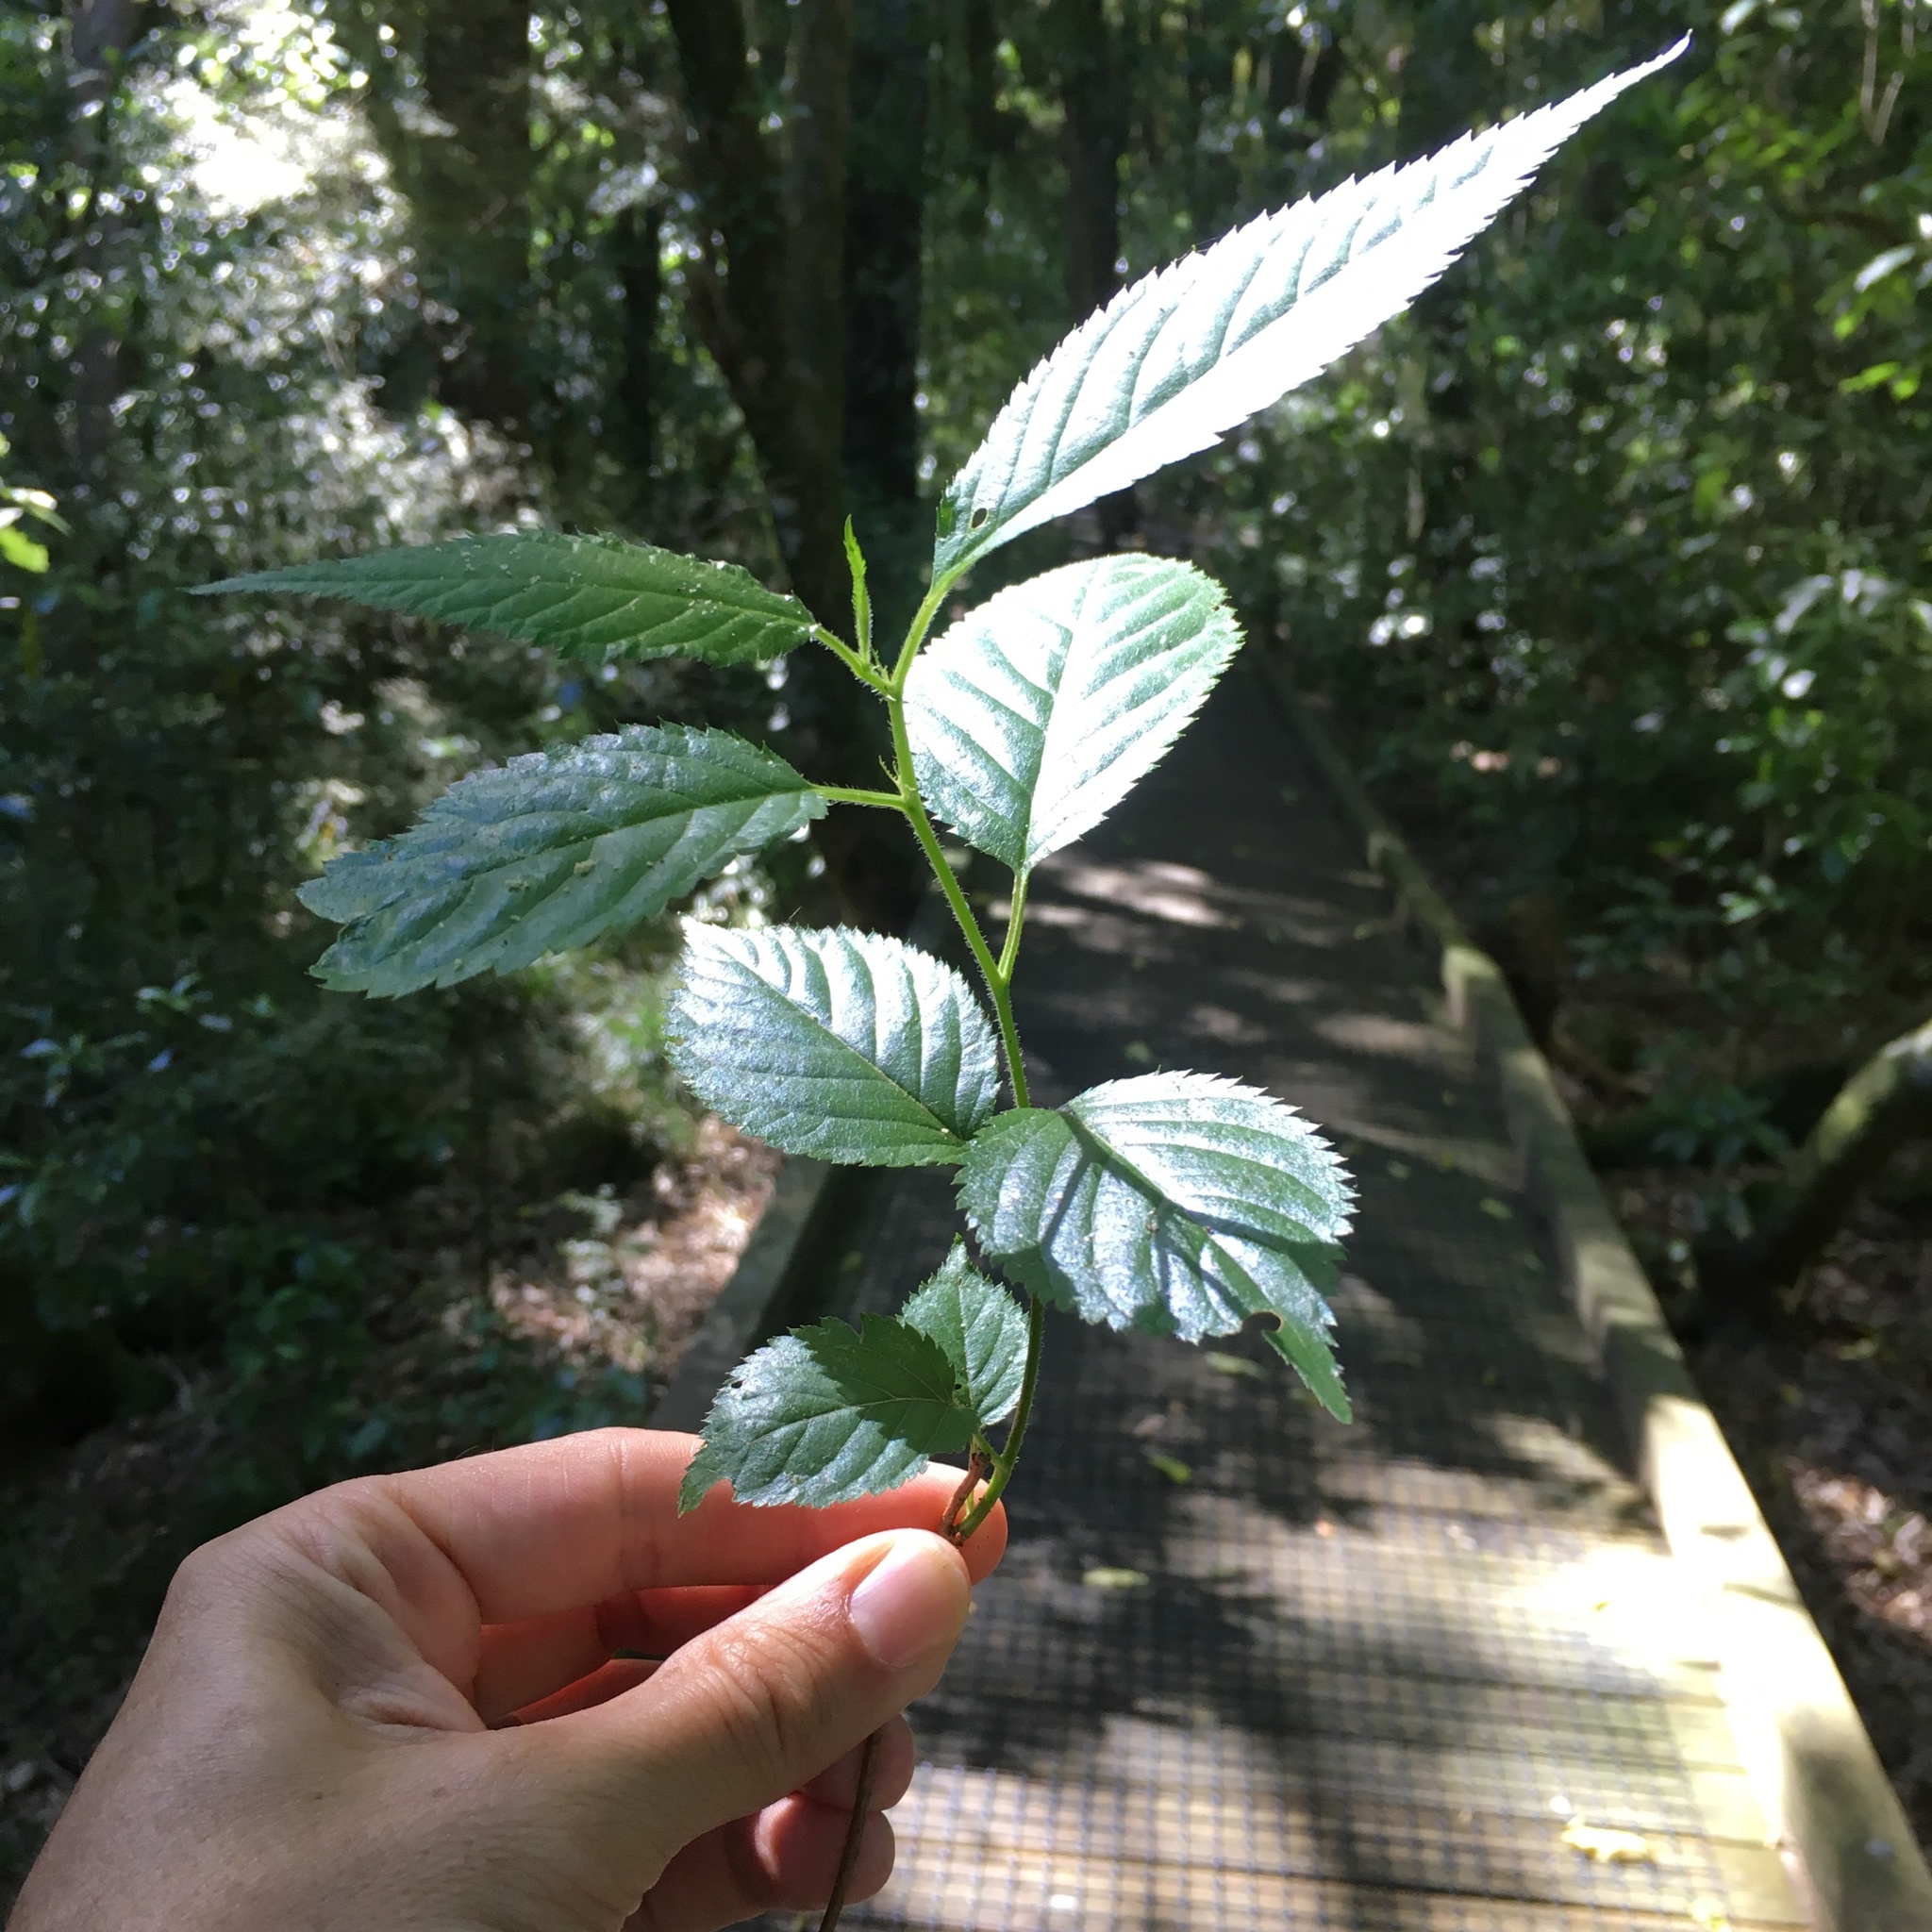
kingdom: Plantae
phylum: Tracheophyta
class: Magnoliopsida
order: Rosales
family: Rosaceae
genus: Prunus
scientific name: Prunus
